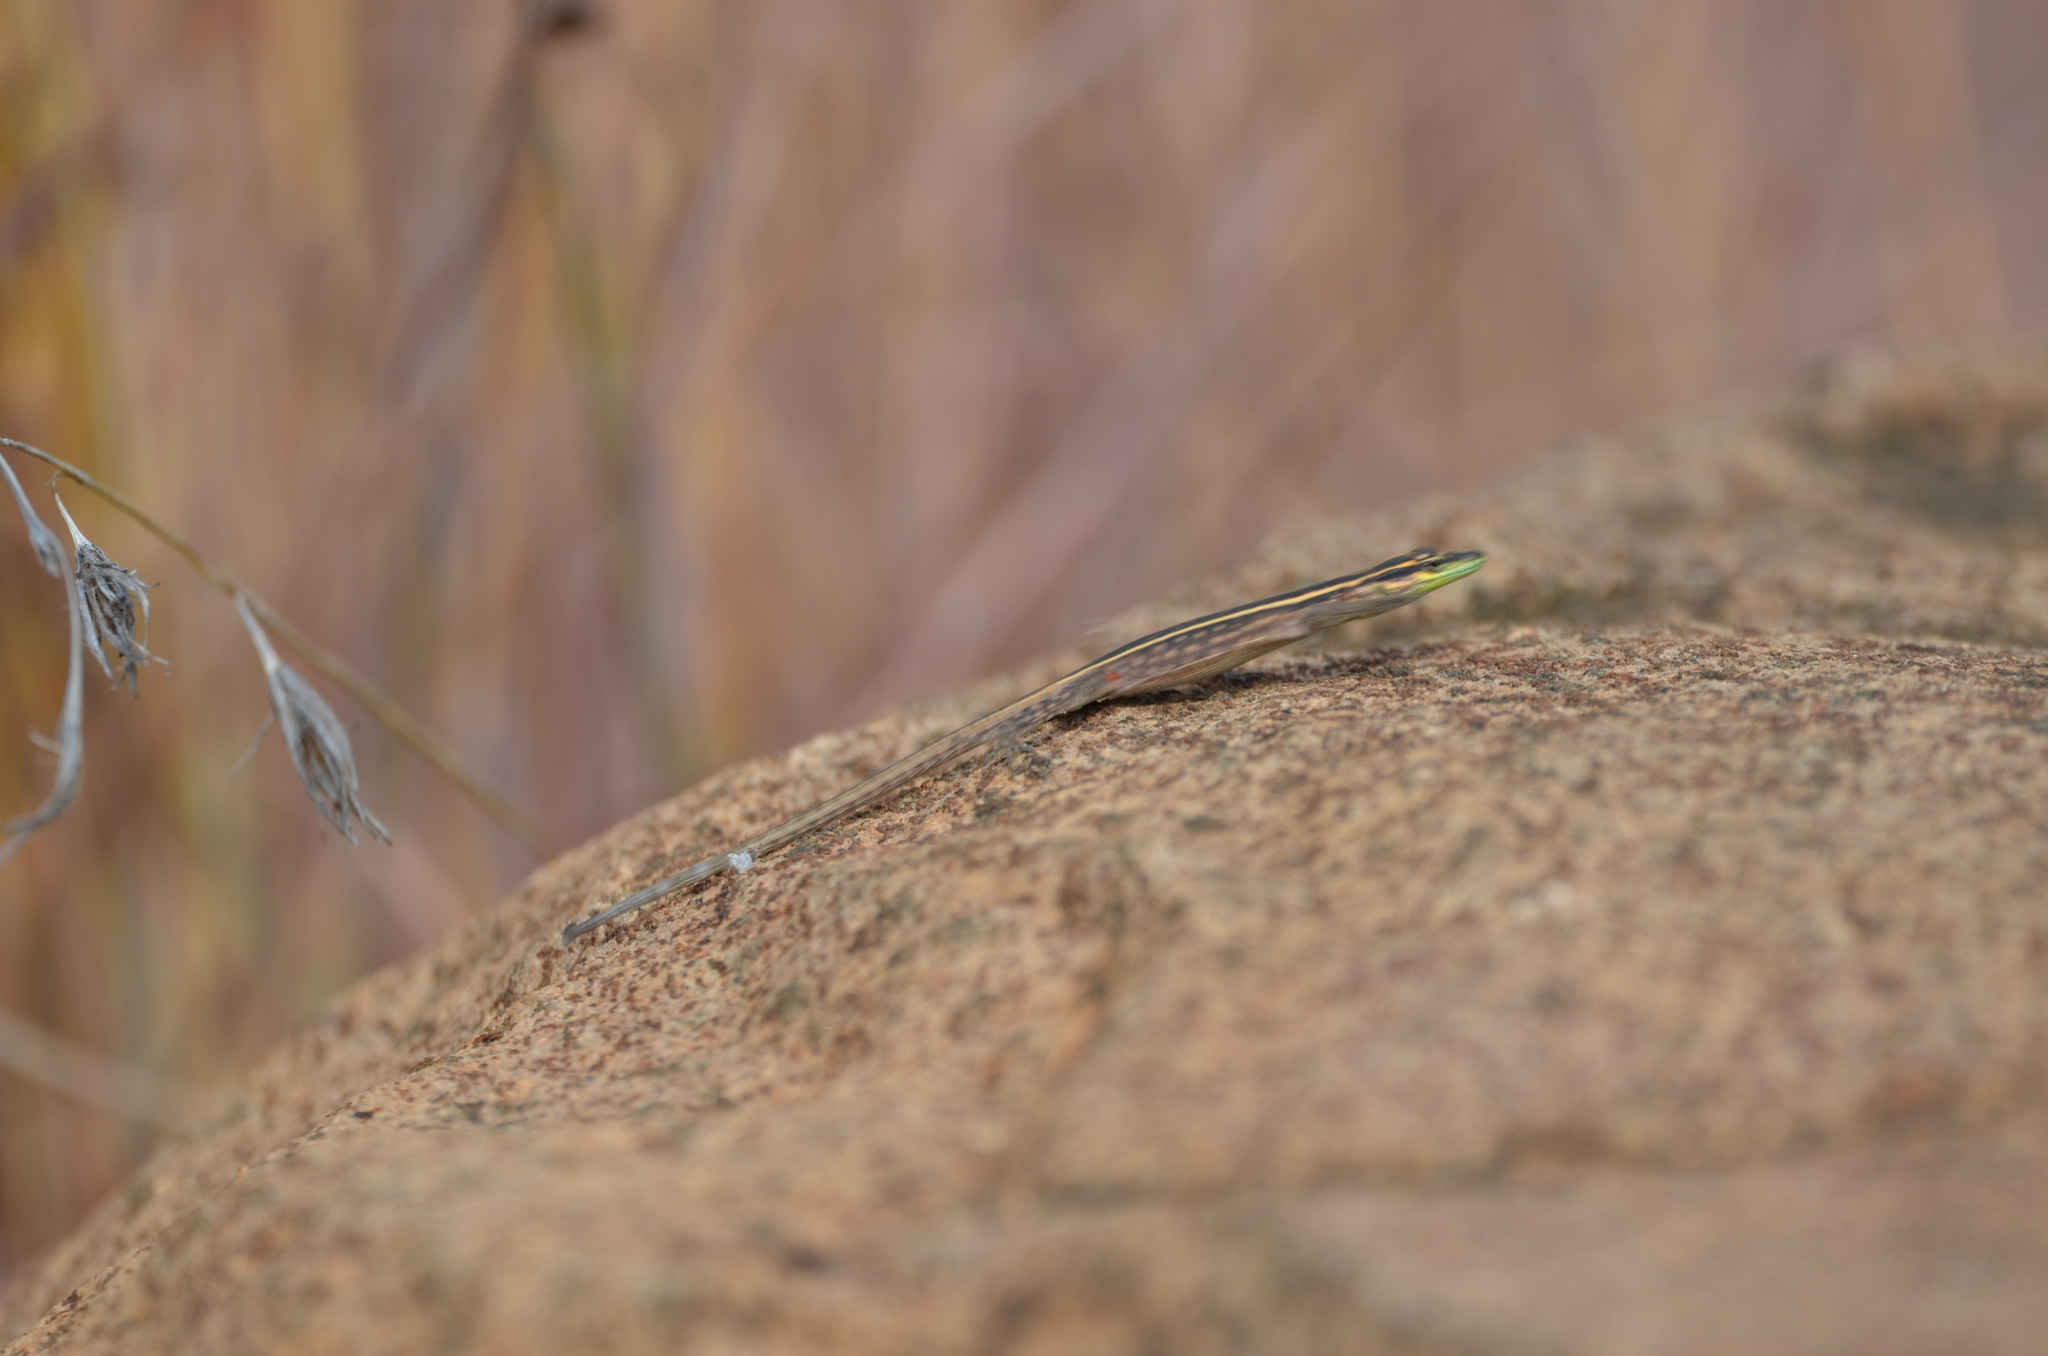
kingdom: Animalia
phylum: Chordata
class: Squamata
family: Cordylidae
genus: Platysaurus
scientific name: Platysaurus orientalis
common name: Sekhukune flat lizard
